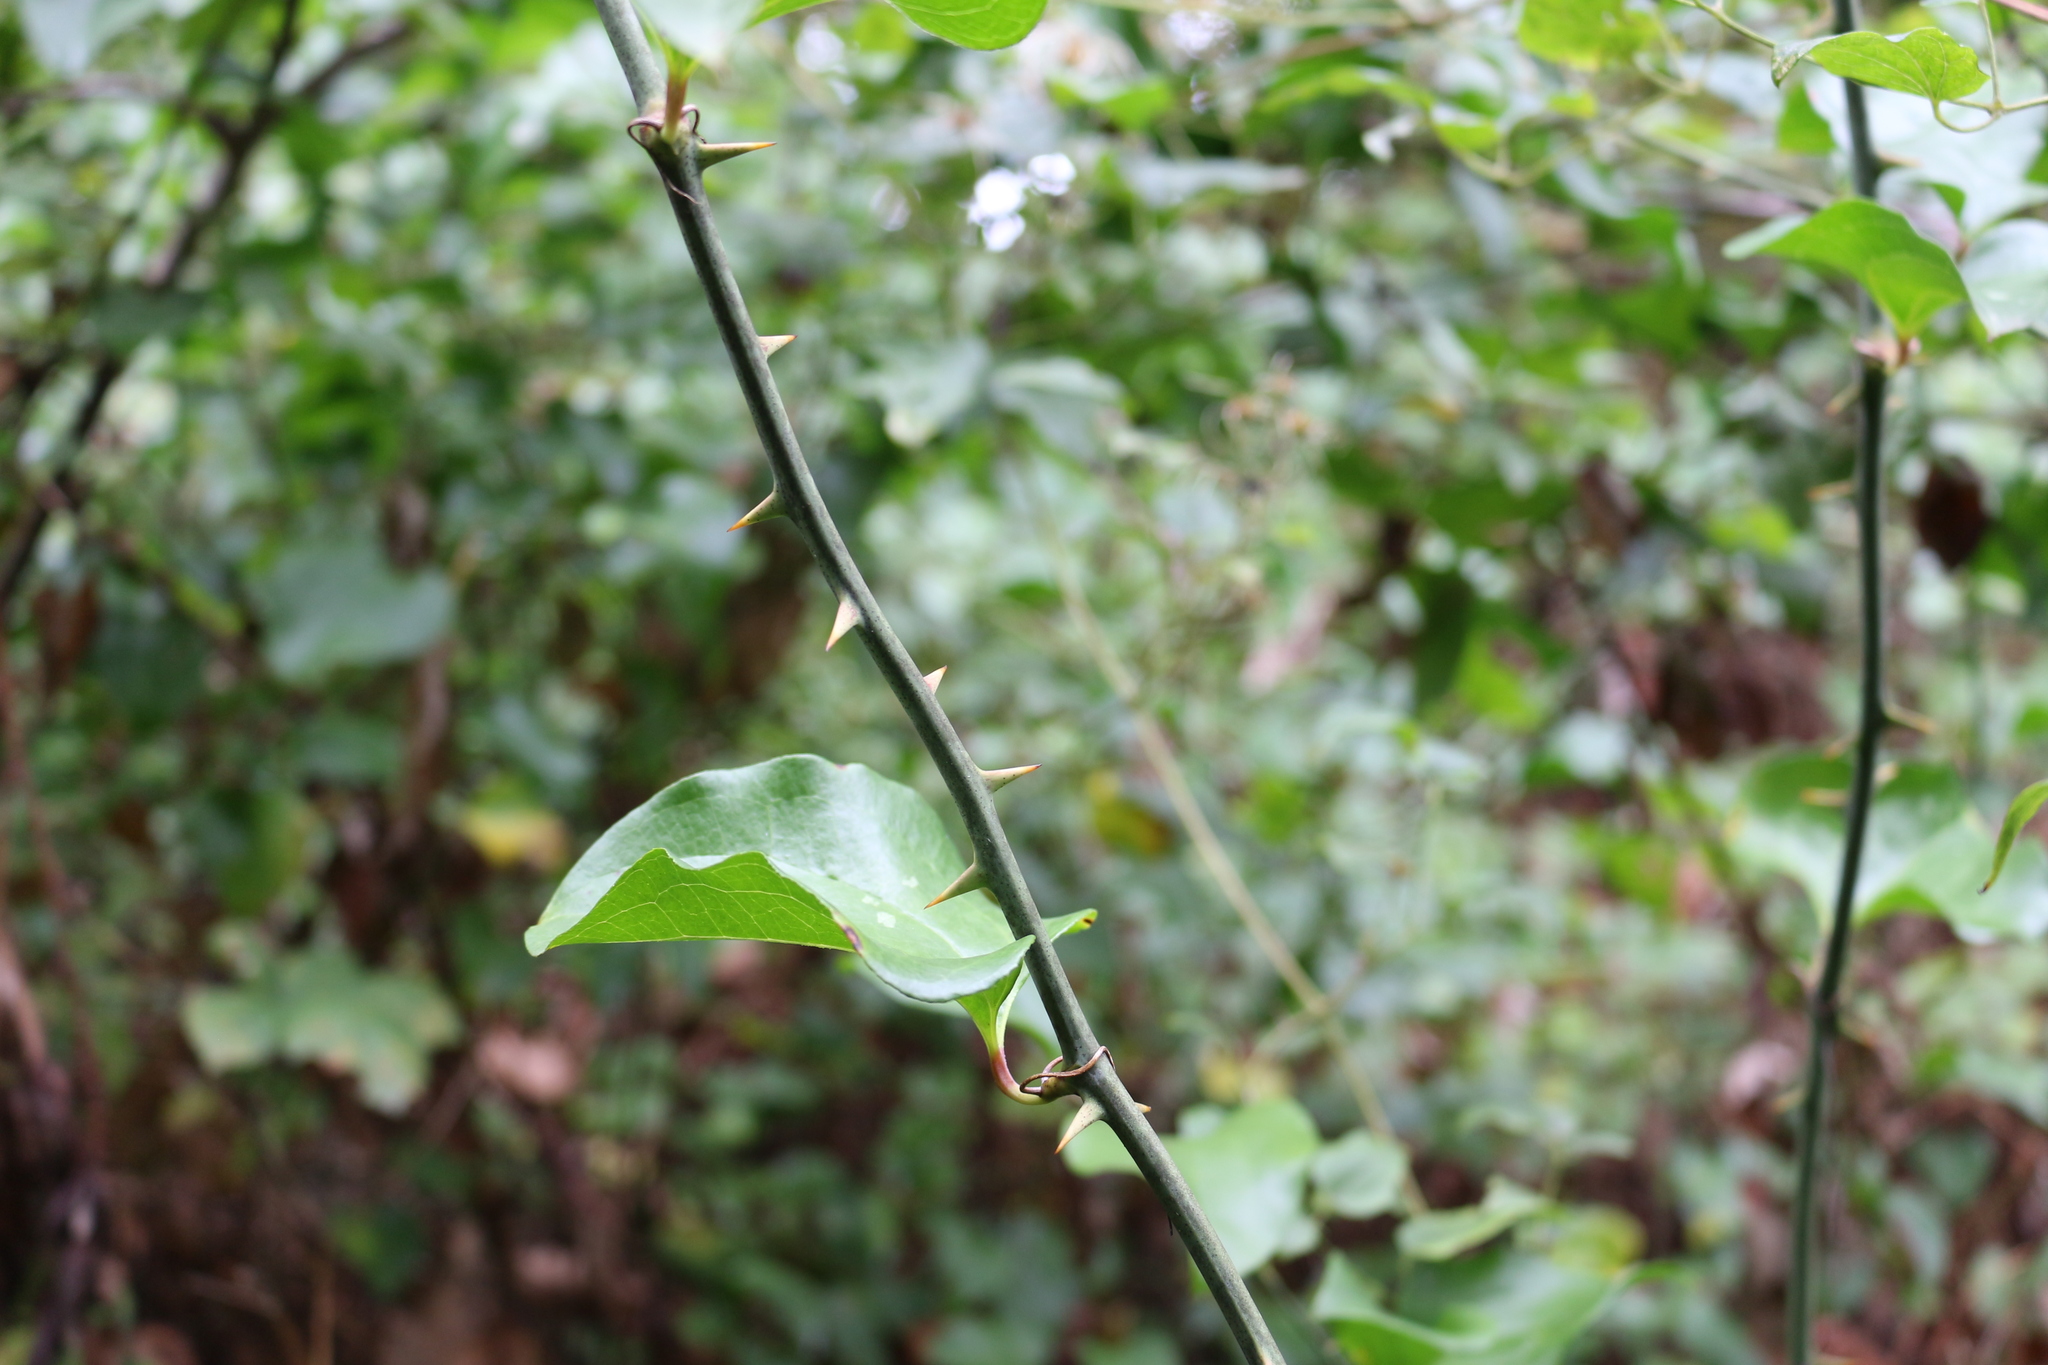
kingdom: Plantae
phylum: Tracheophyta
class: Liliopsida
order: Liliales
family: Smilacaceae
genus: Smilax
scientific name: Smilax excelsa
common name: Larger smilax
